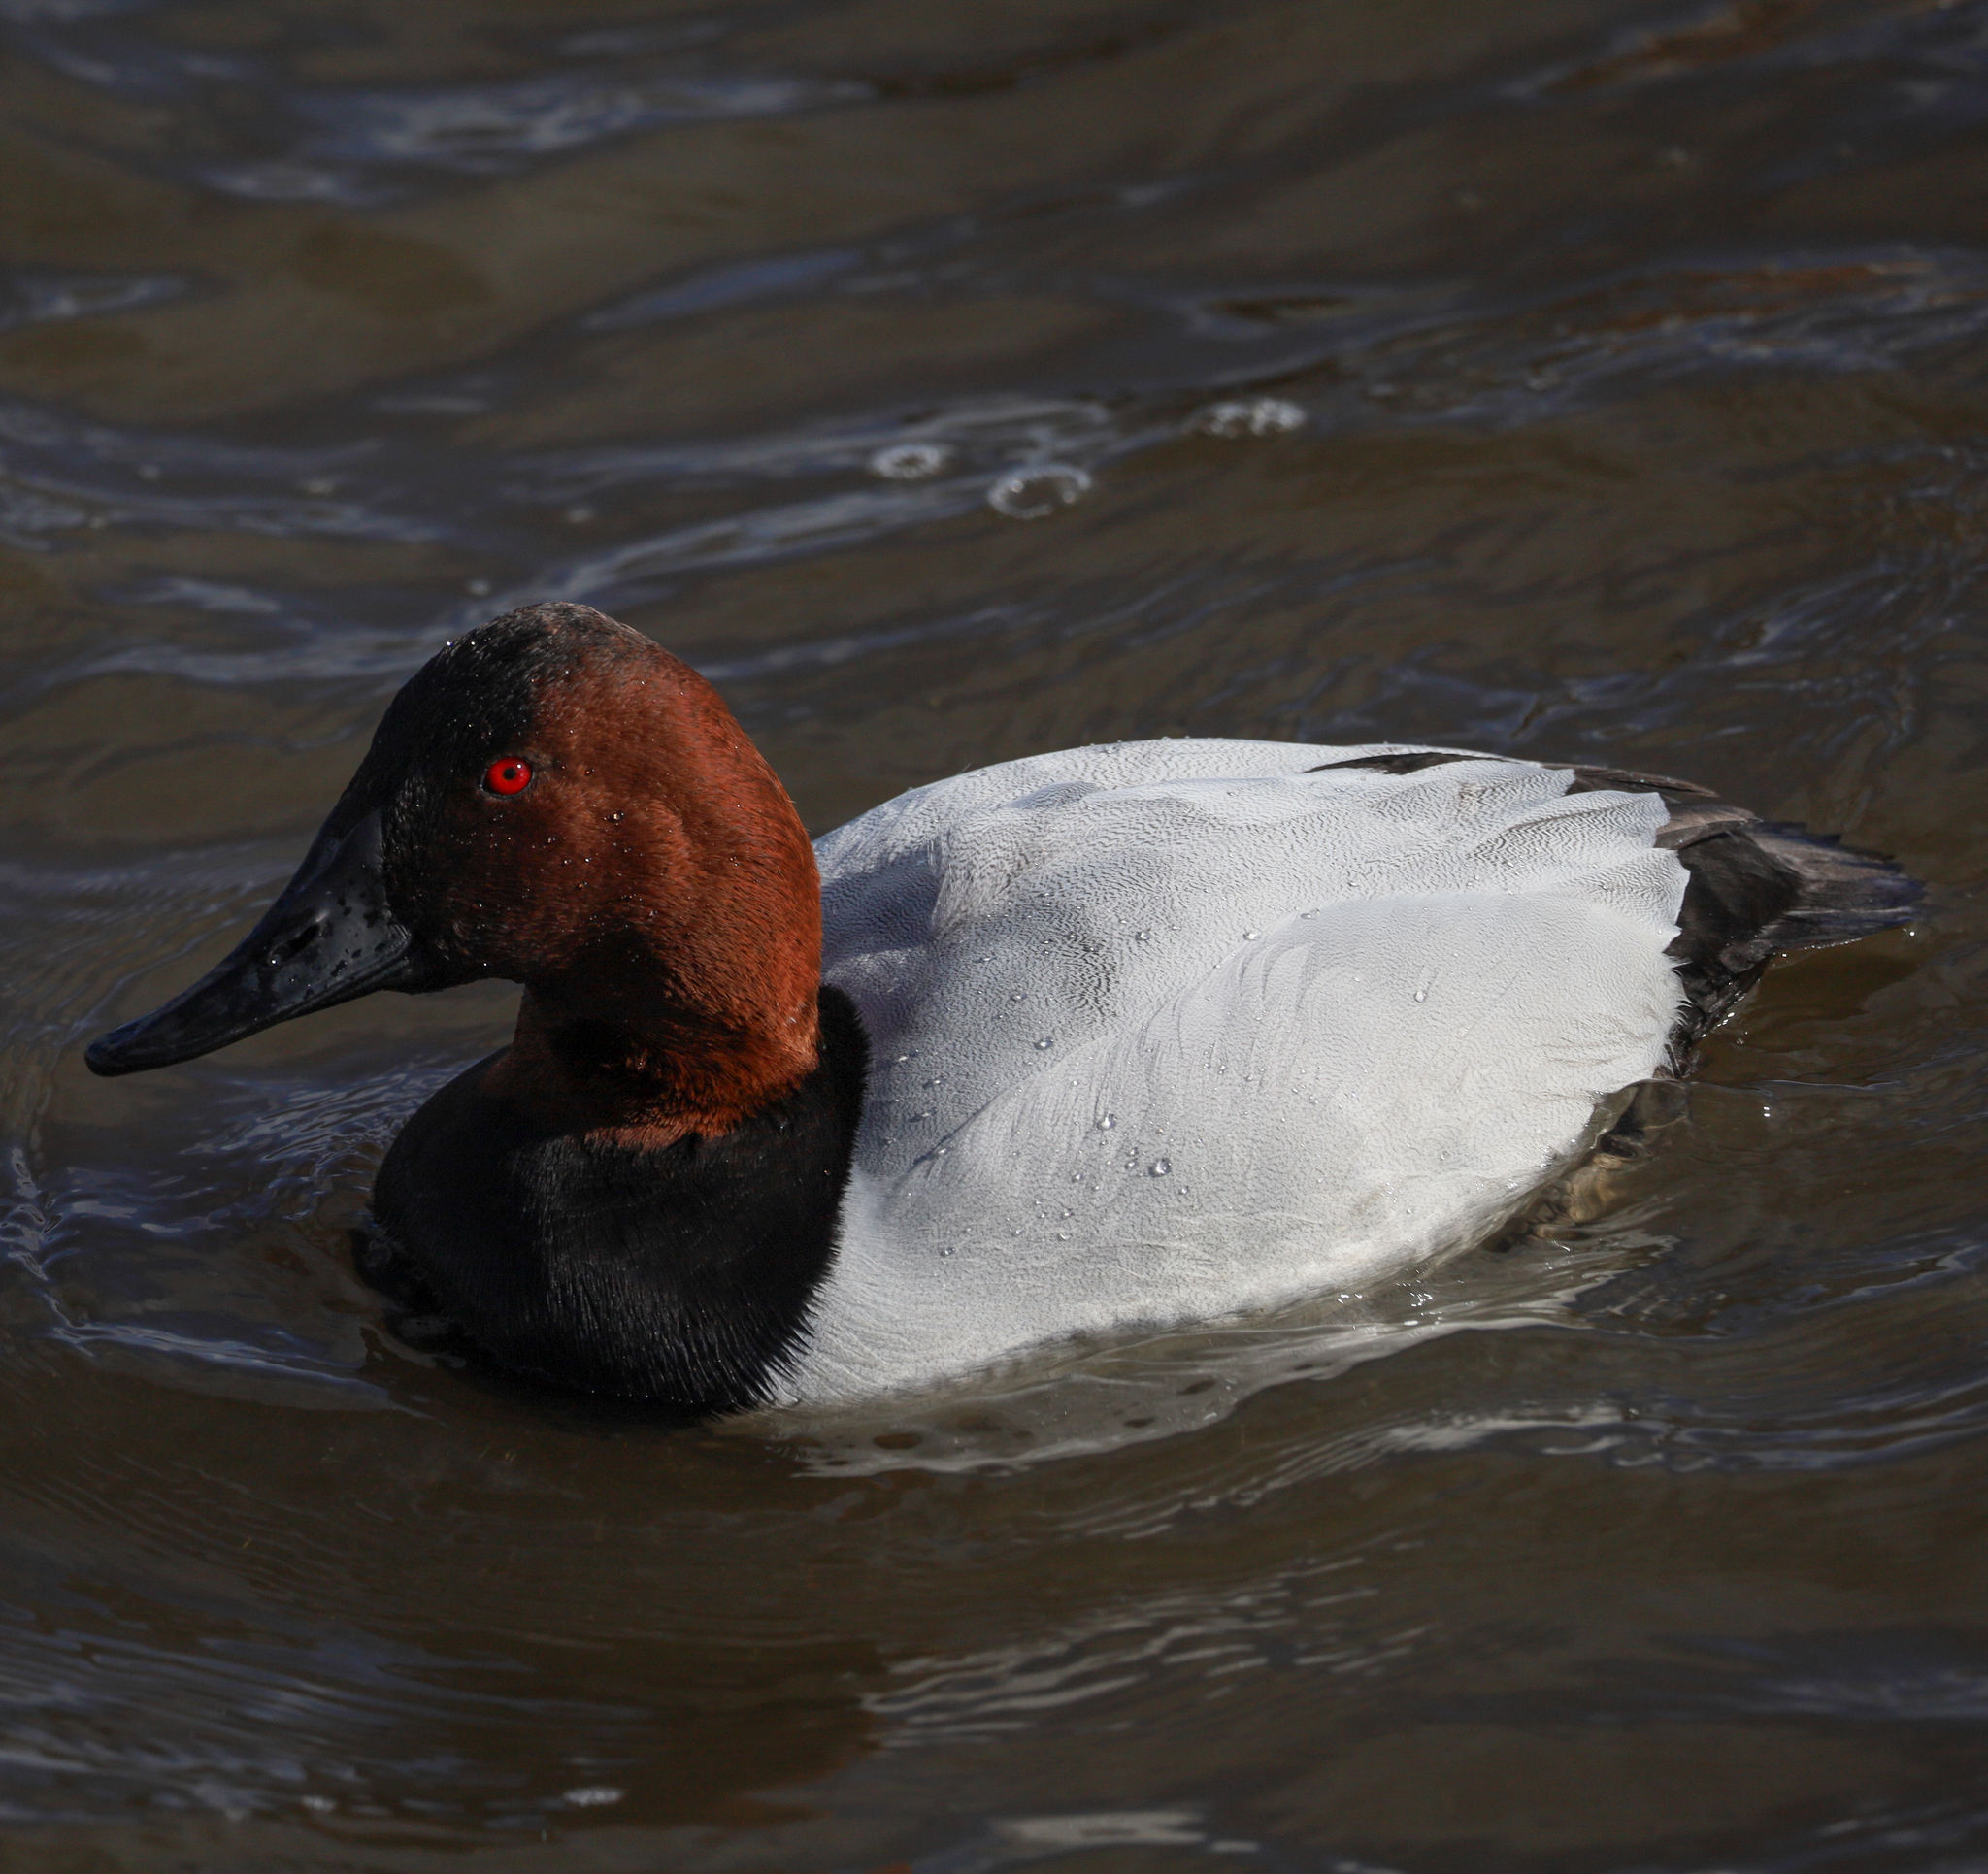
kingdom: Animalia
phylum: Chordata
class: Aves
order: Anseriformes
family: Anatidae
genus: Aythya
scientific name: Aythya valisineria
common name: Canvasback
